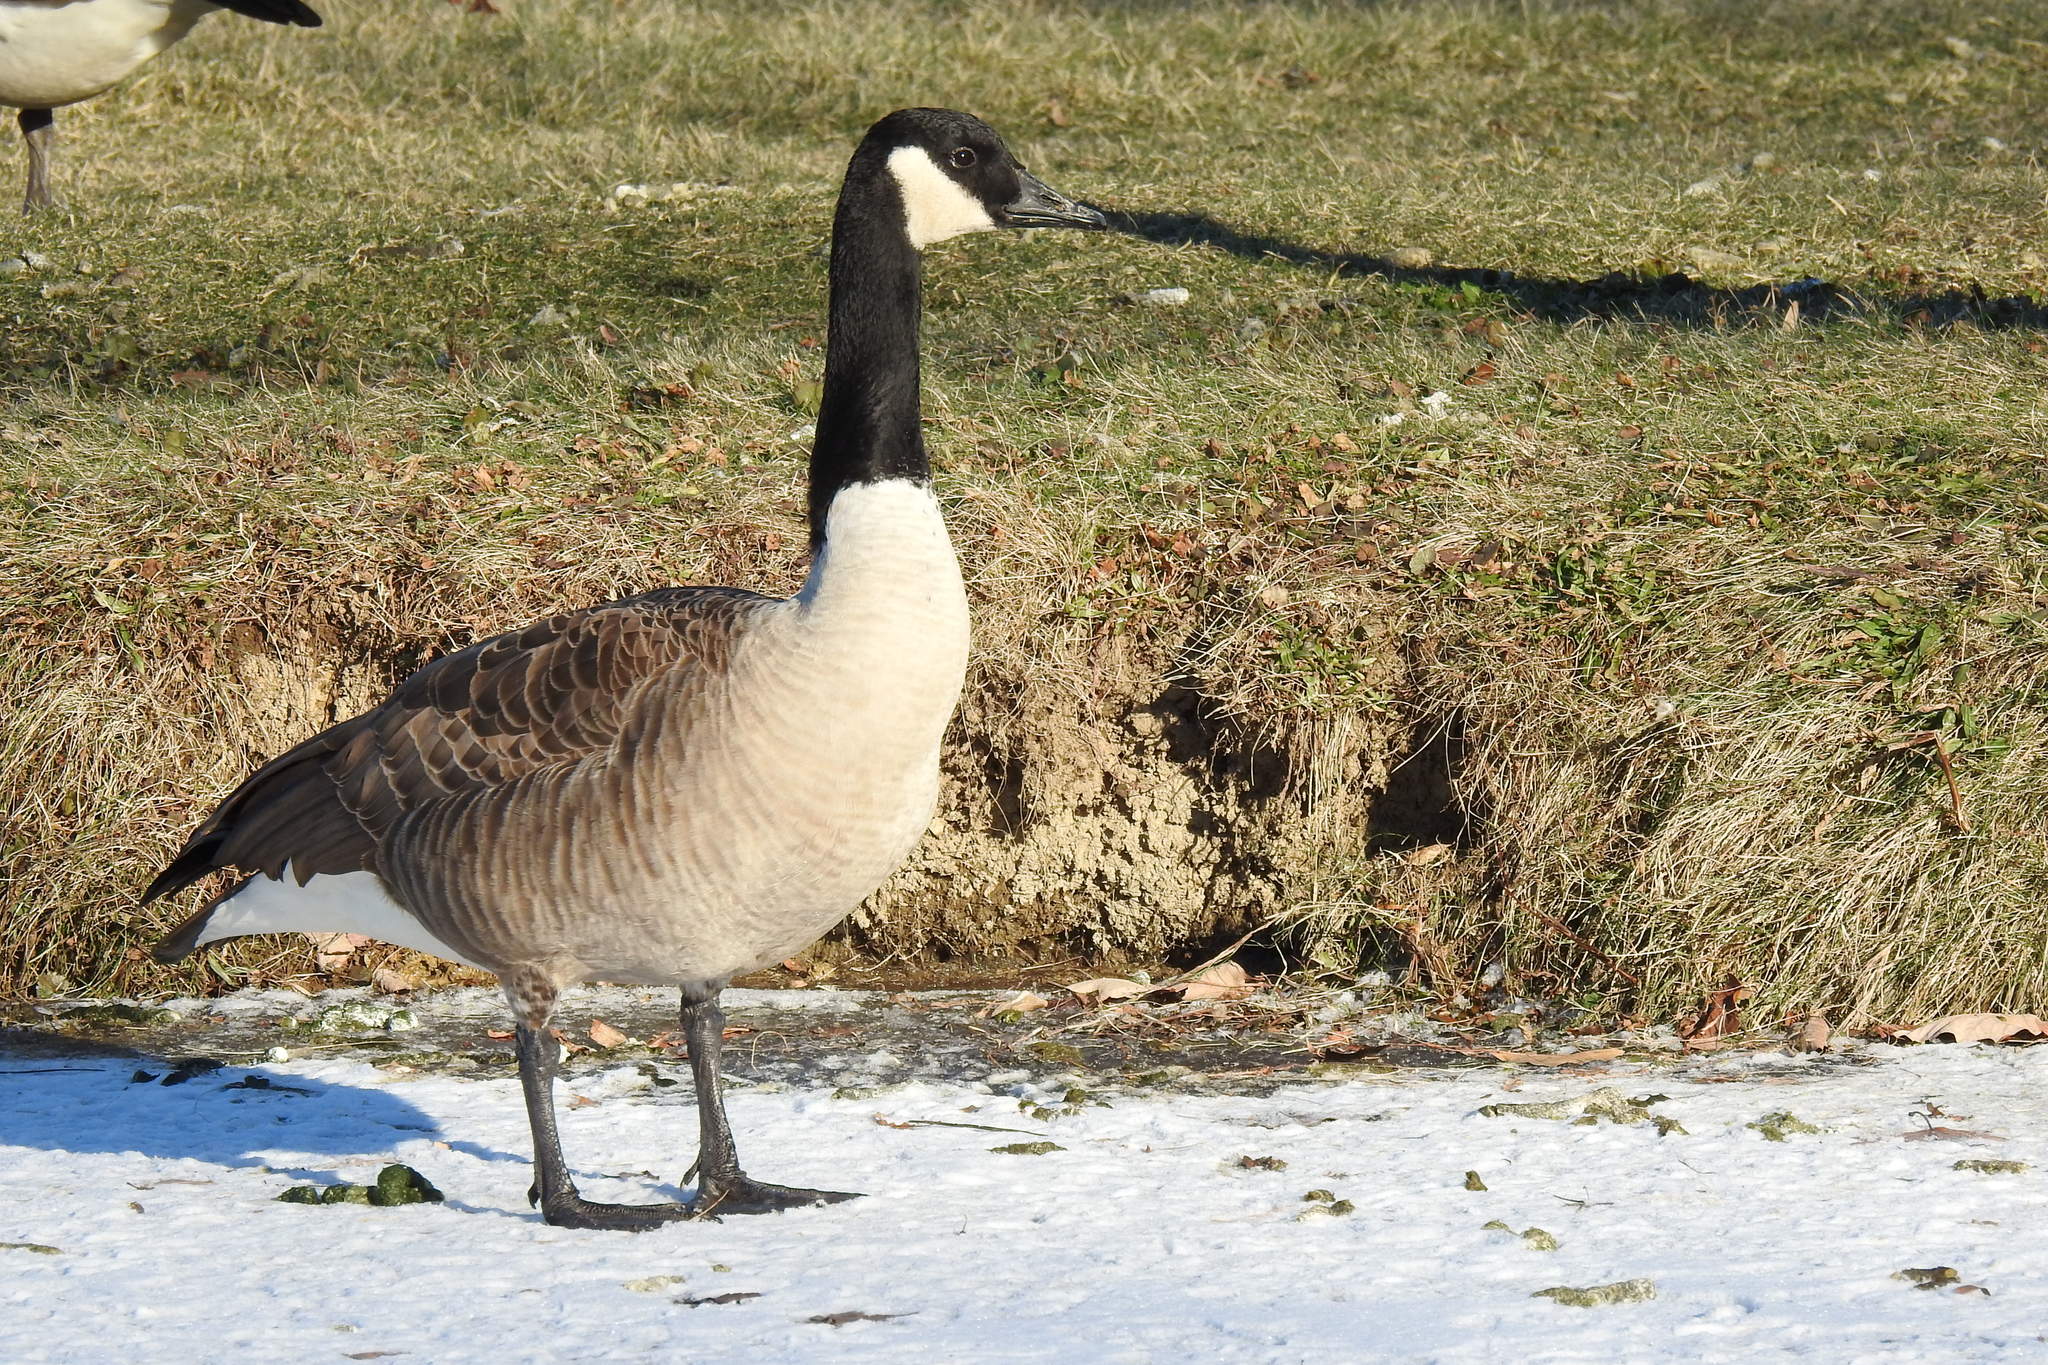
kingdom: Animalia
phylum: Chordata
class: Aves
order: Anseriformes
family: Anatidae
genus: Branta
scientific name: Branta canadensis
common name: Canada goose
